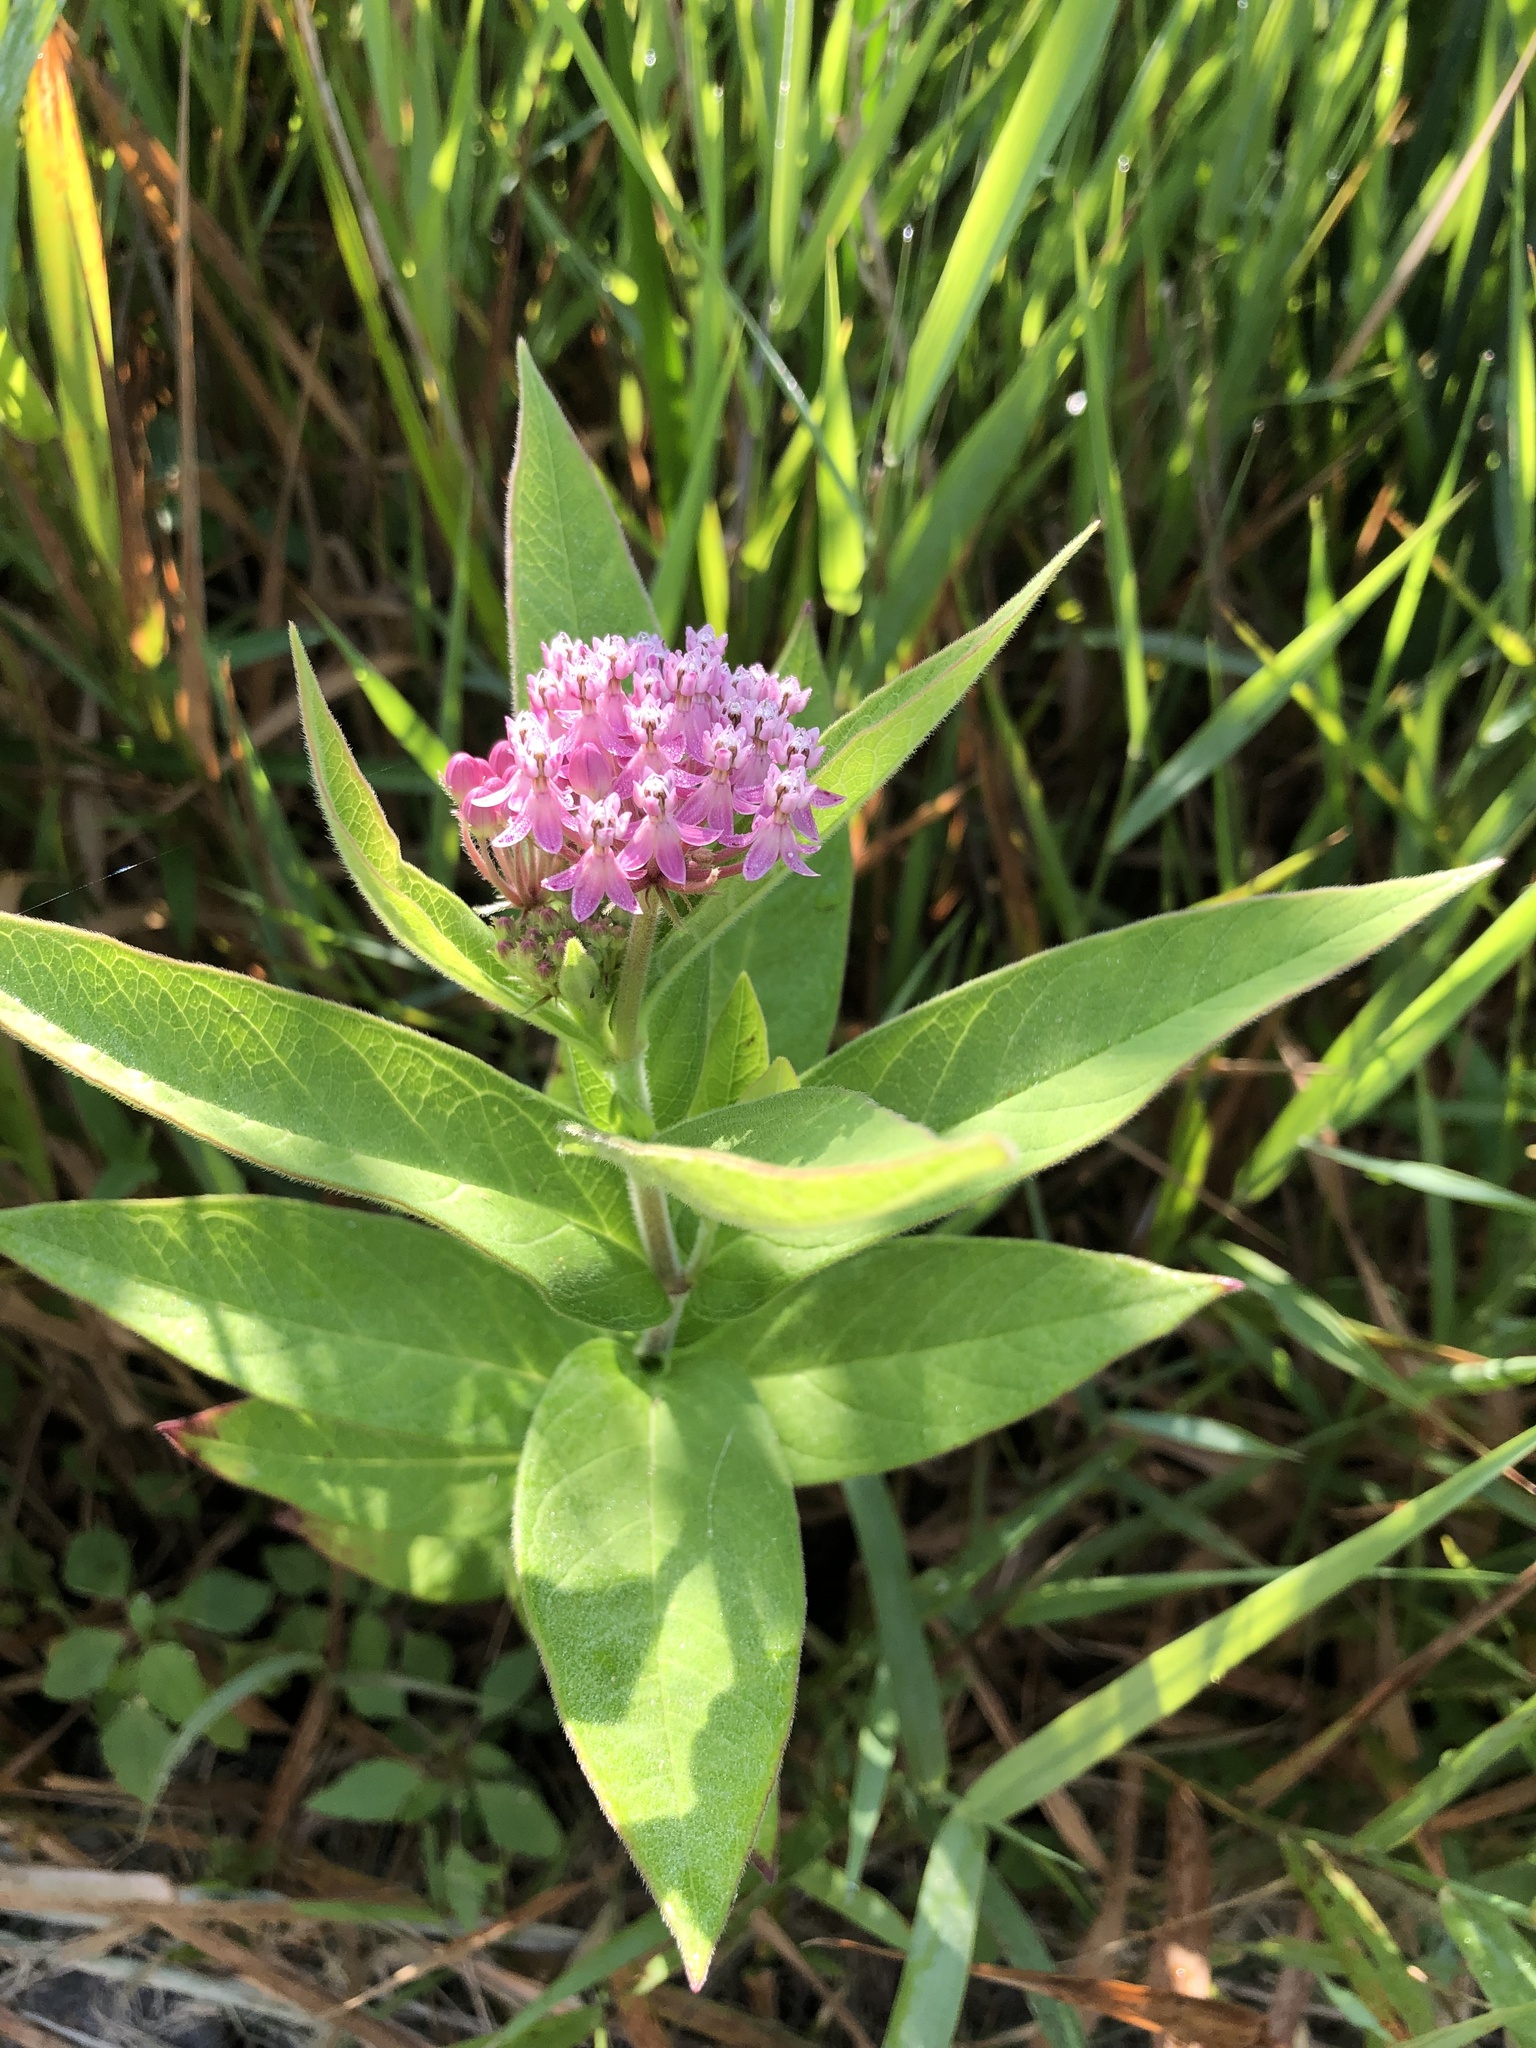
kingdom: Plantae
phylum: Tracheophyta
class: Magnoliopsida
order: Gentianales
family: Apocynaceae
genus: Asclepias
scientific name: Asclepias incarnata
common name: Swamp milkweed
